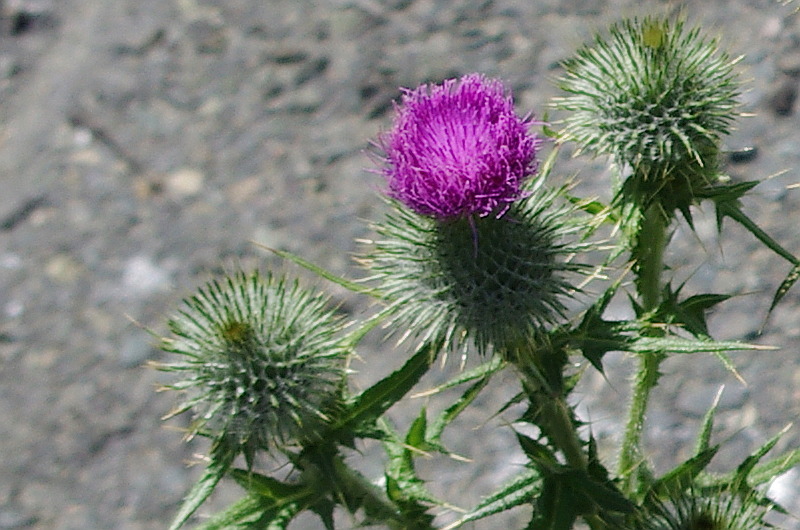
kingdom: Plantae
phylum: Tracheophyta
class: Magnoliopsida
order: Asterales
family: Asteraceae
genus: Cirsium
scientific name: Cirsium vulgare
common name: Bull thistle
